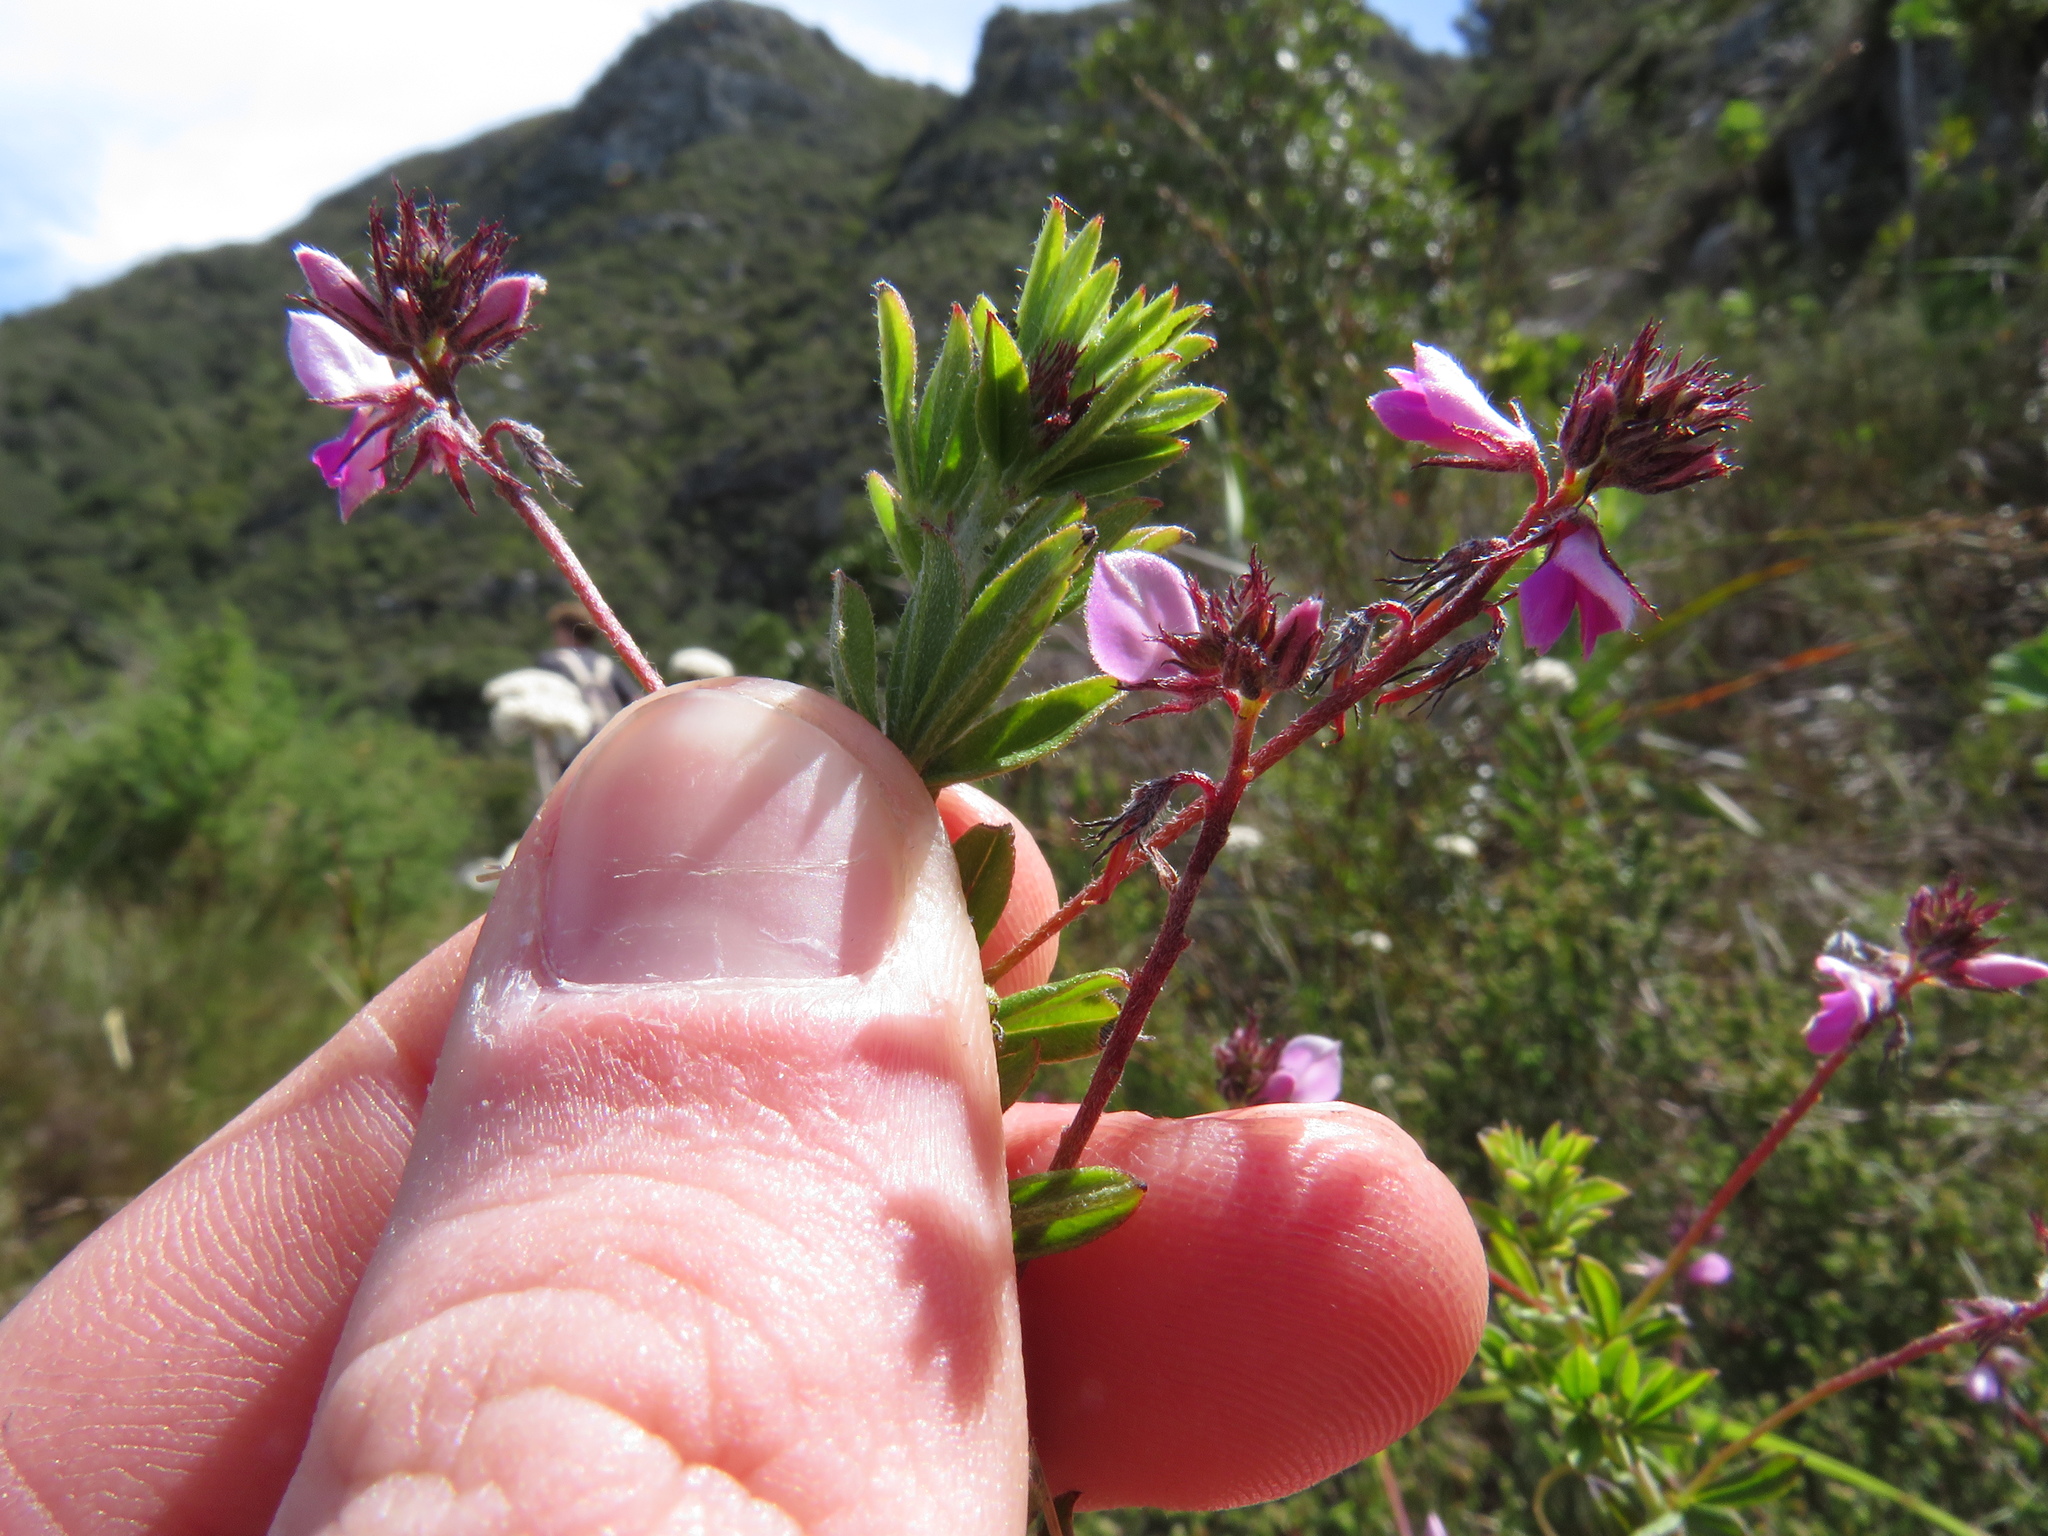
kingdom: Plantae
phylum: Tracheophyta
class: Magnoliopsida
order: Fabales
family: Fabaceae
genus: Indigofera
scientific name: Indigofera filiformis
